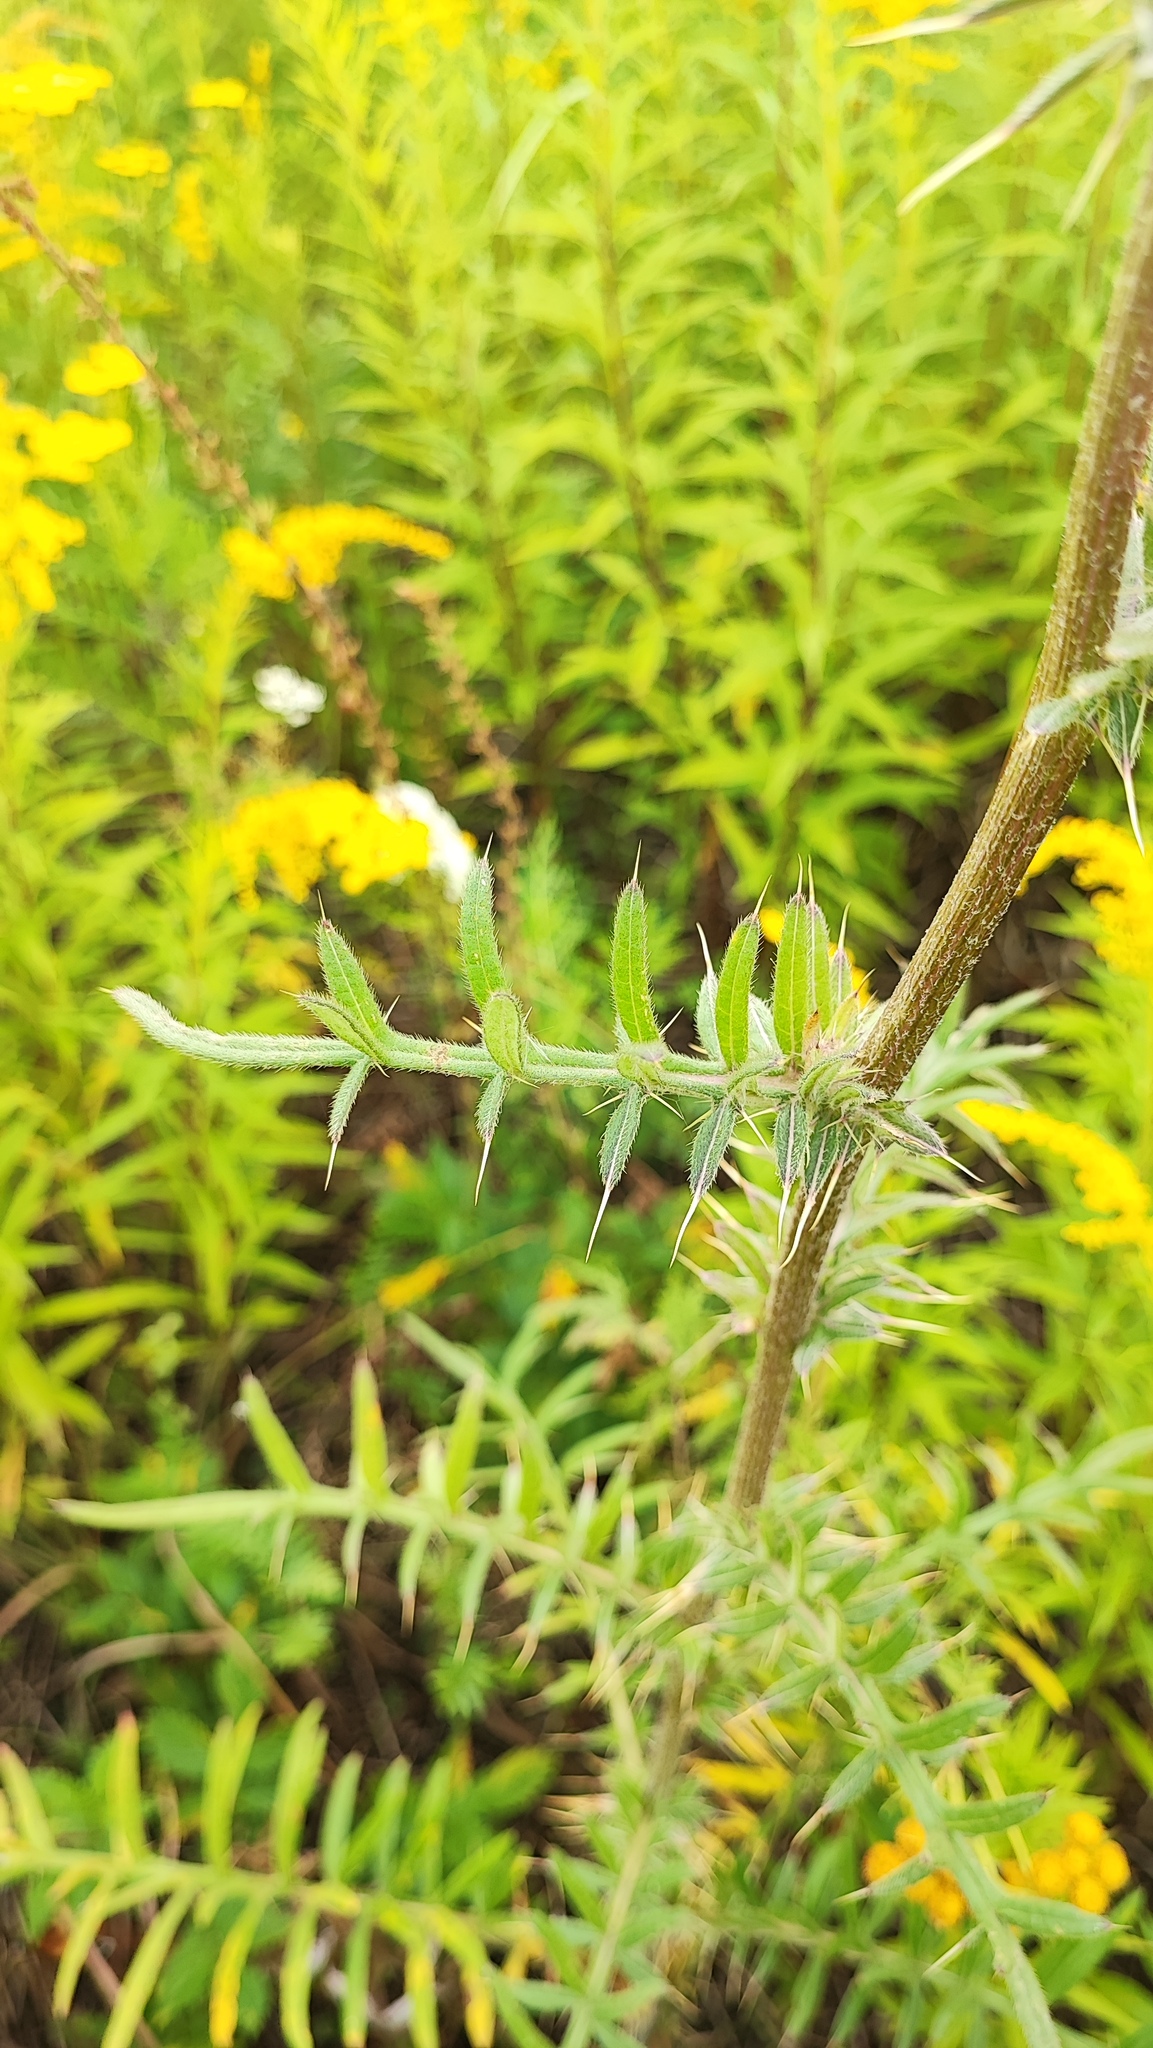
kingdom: Plantae
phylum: Tracheophyta
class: Magnoliopsida
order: Asterales
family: Asteraceae
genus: Lophiolepis
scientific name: Lophiolepis decussata
